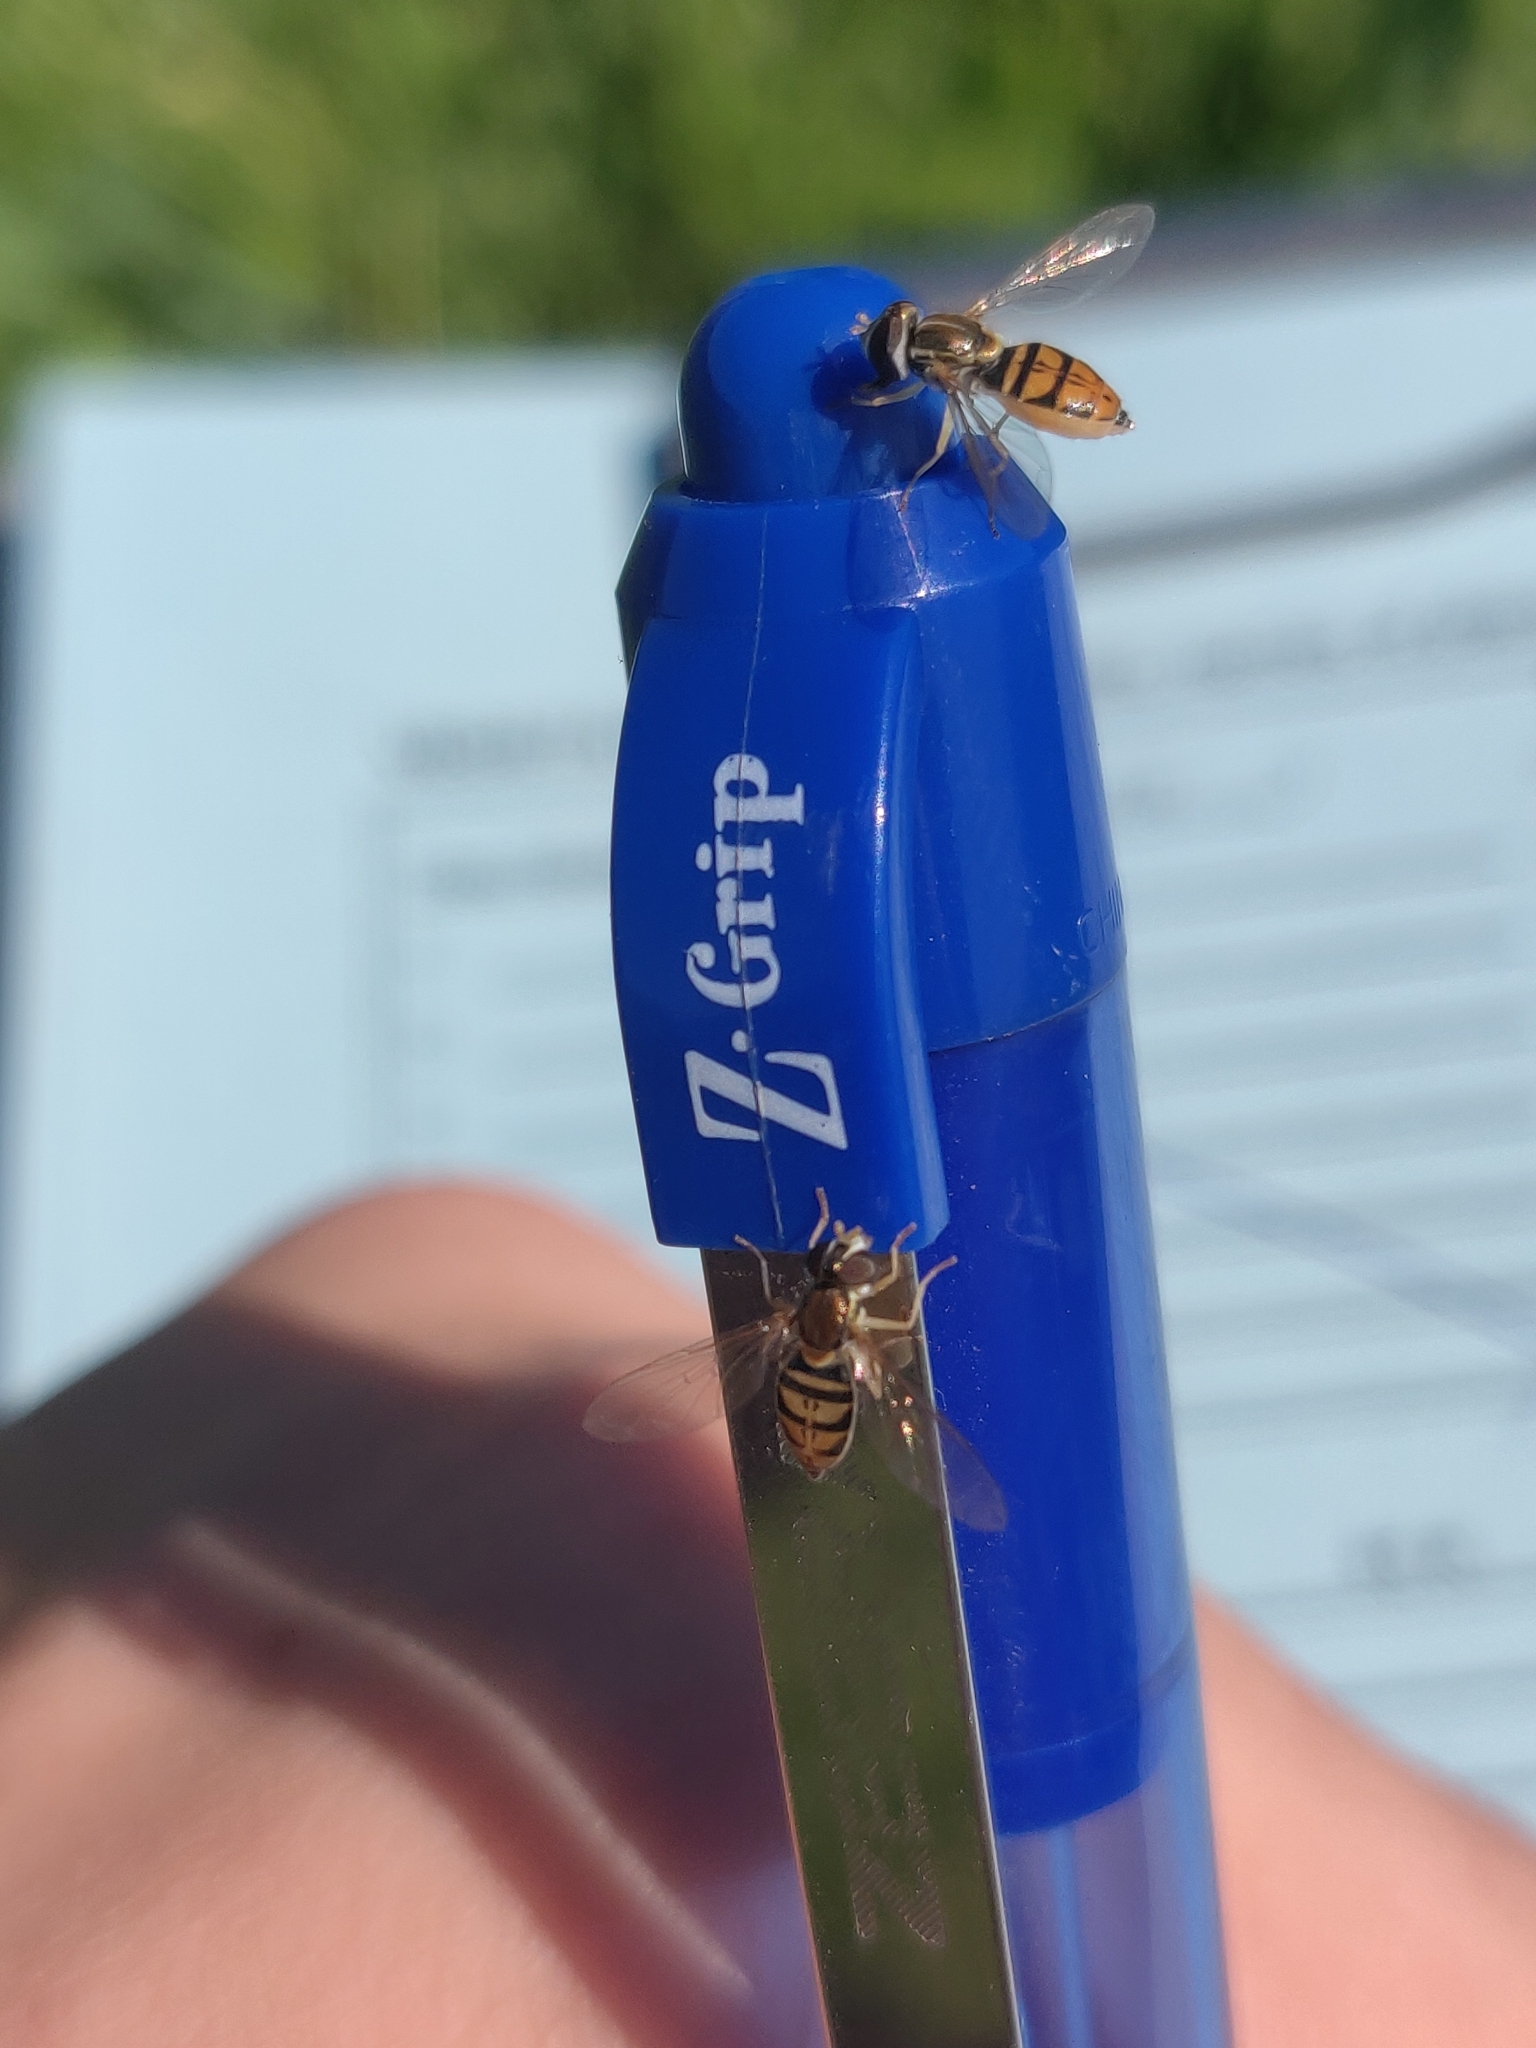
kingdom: Animalia
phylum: Arthropoda
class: Insecta
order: Diptera
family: Syrphidae
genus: Toxomerus
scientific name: Toxomerus marginatus
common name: Syrphid fly
